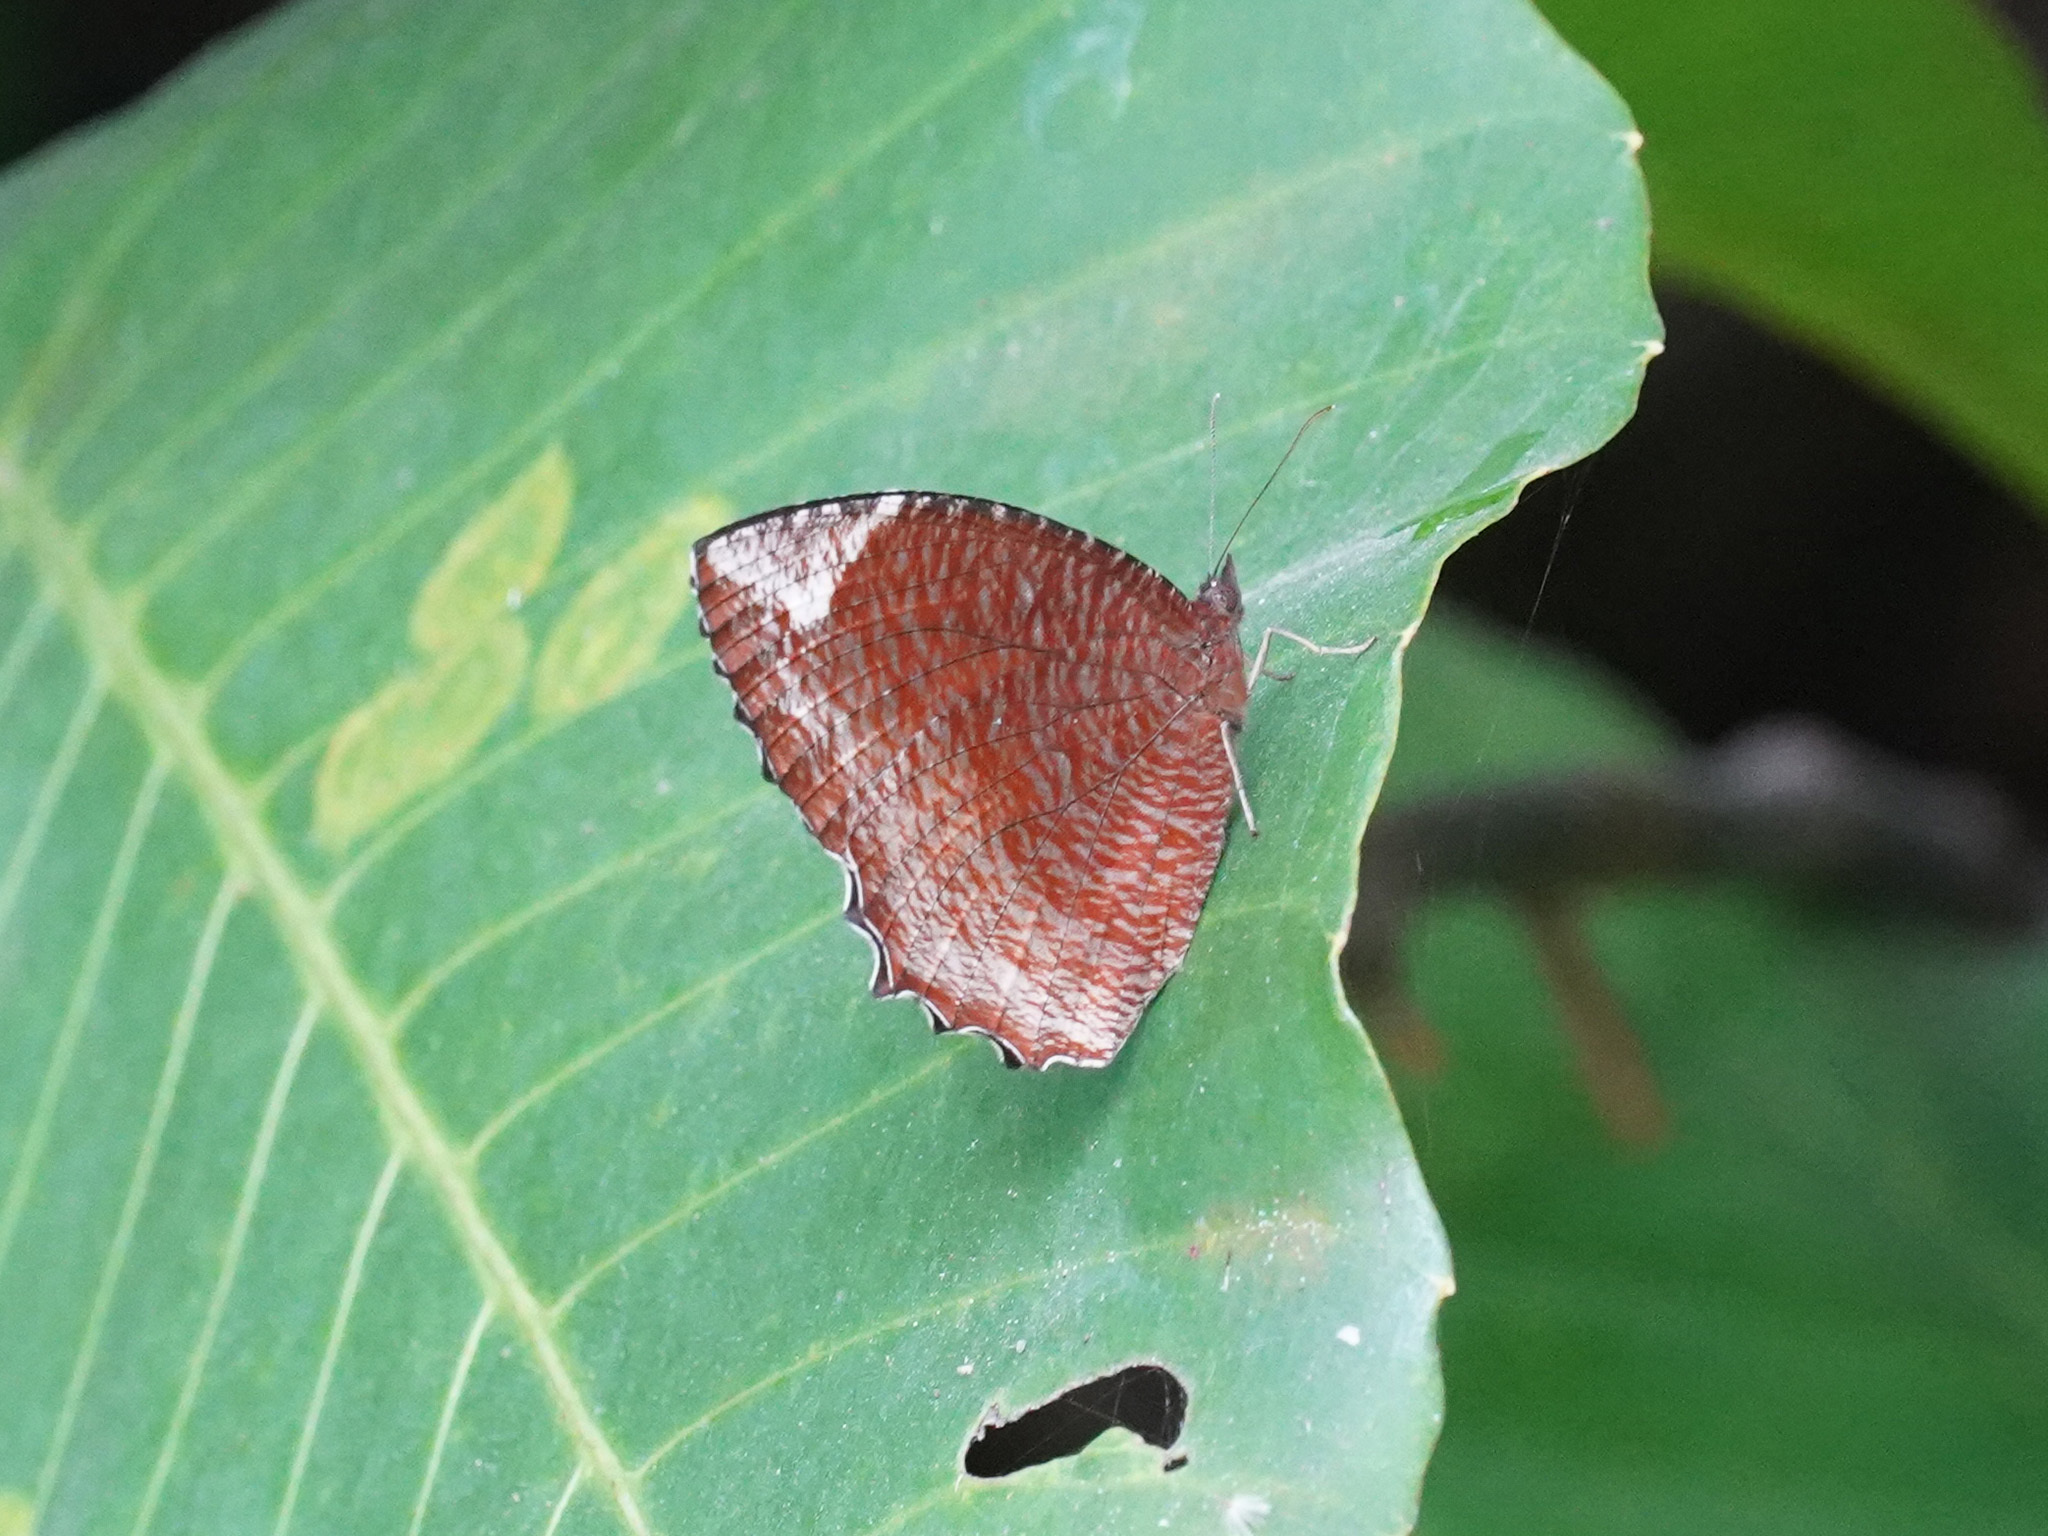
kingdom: Animalia
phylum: Arthropoda
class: Insecta
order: Lepidoptera
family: Nymphalidae
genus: Elymnias
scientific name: Elymnias hypermnestra
